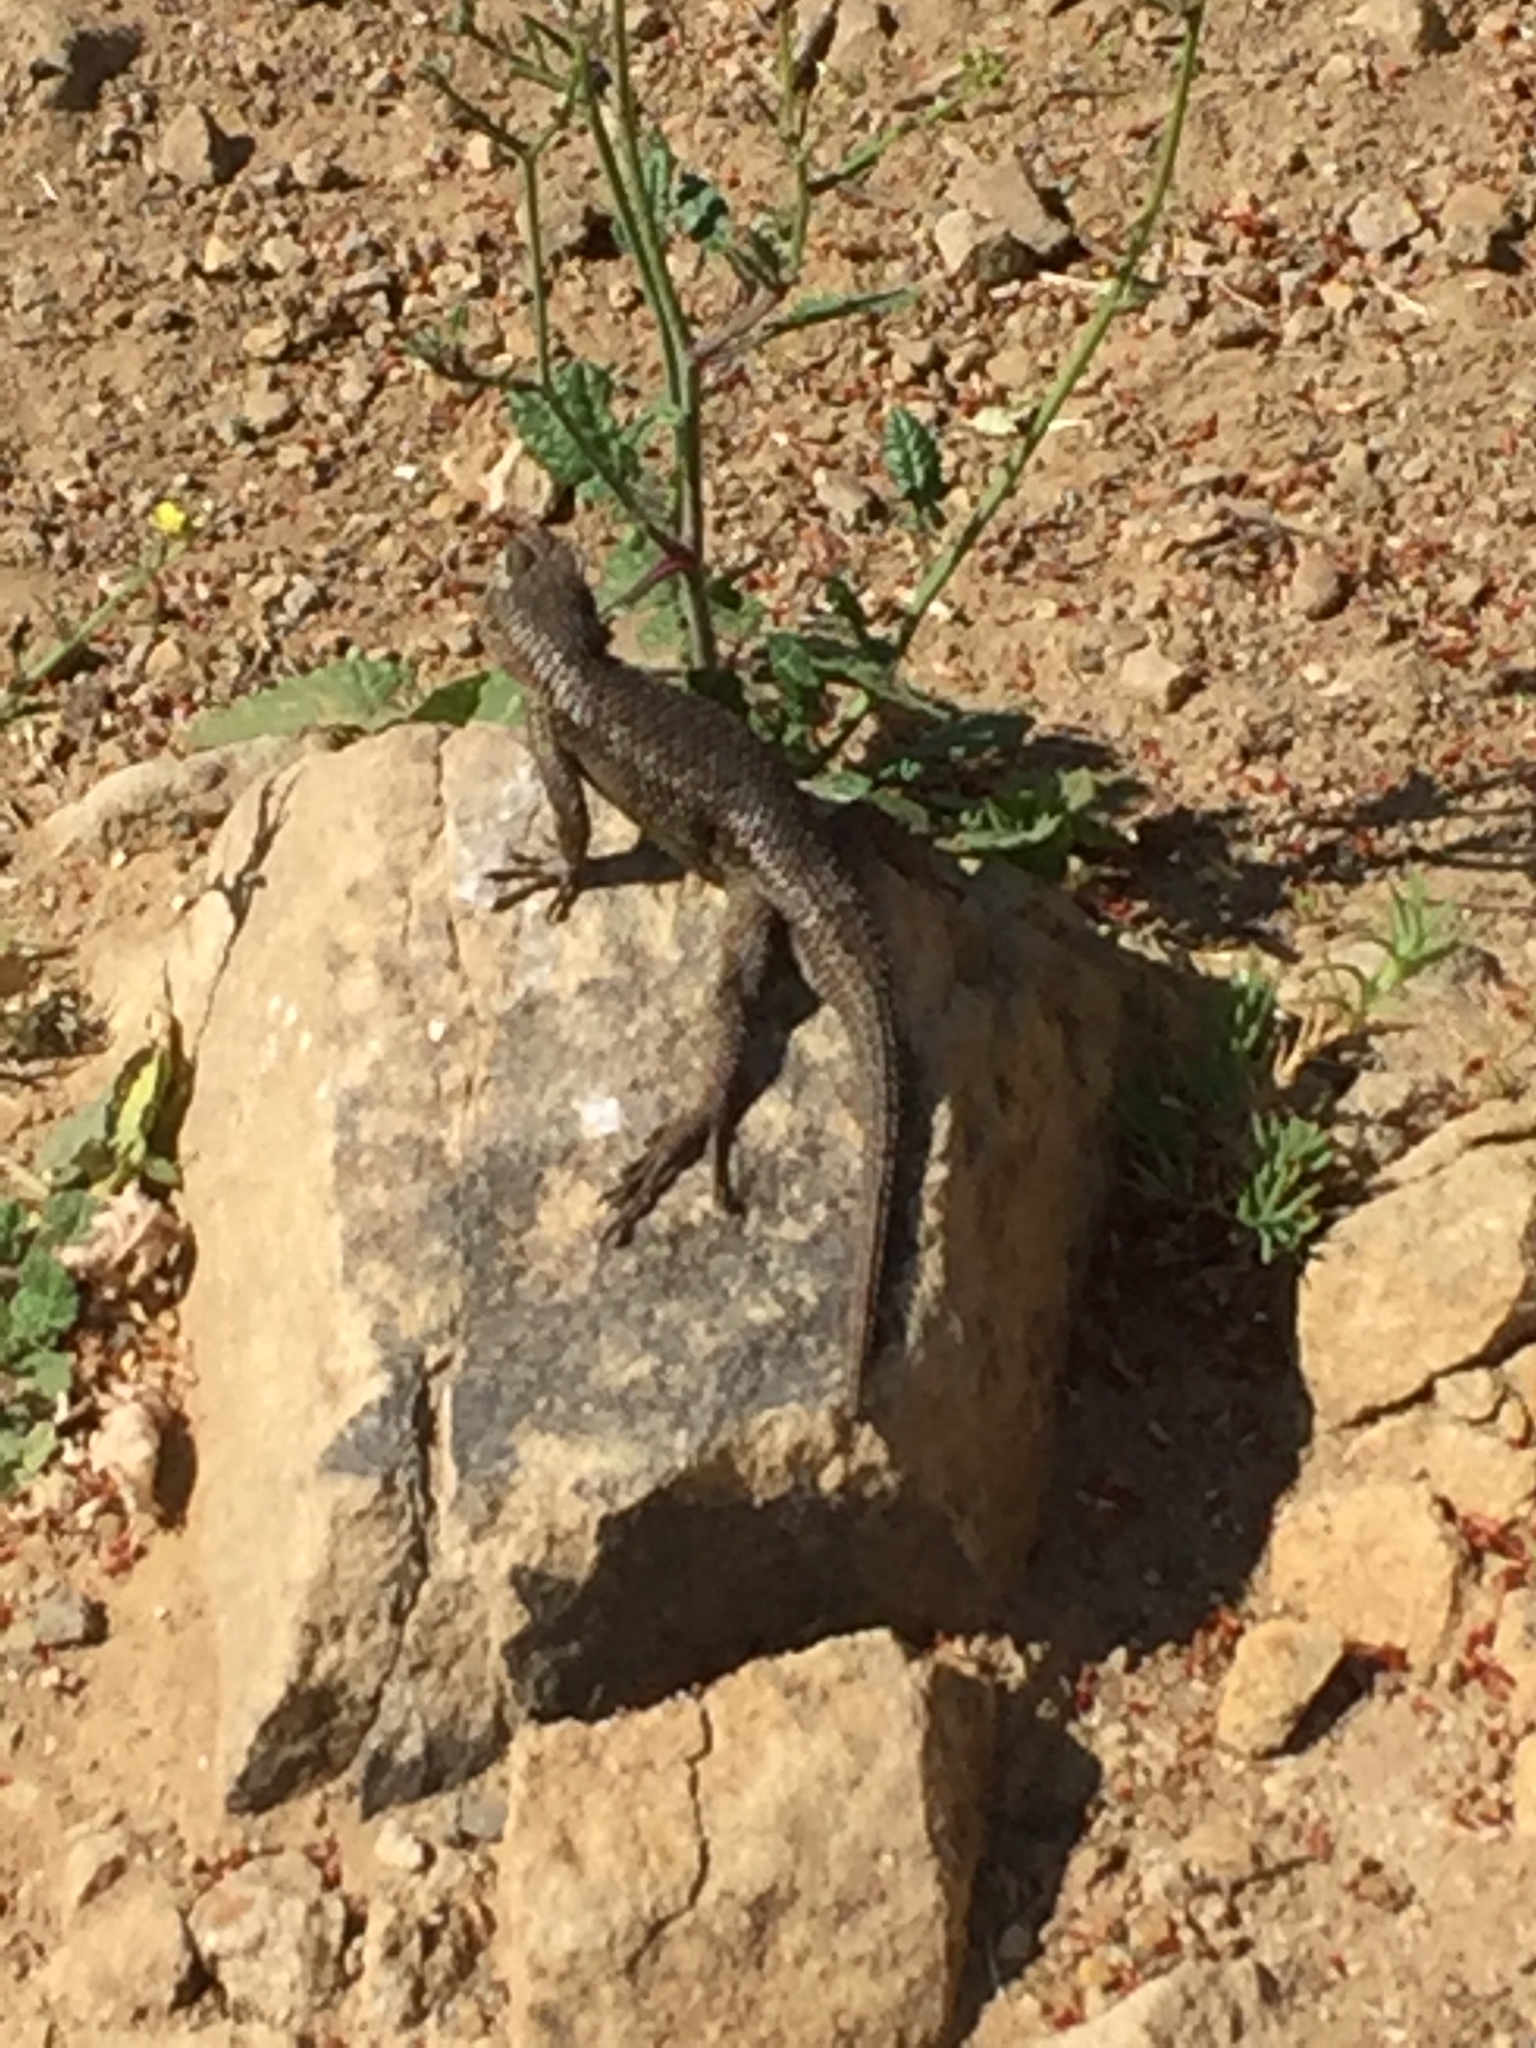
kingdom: Animalia
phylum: Chordata
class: Squamata
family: Phrynosomatidae
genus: Sceloporus
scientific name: Sceloporus occidentalis
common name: Western fence lizard
